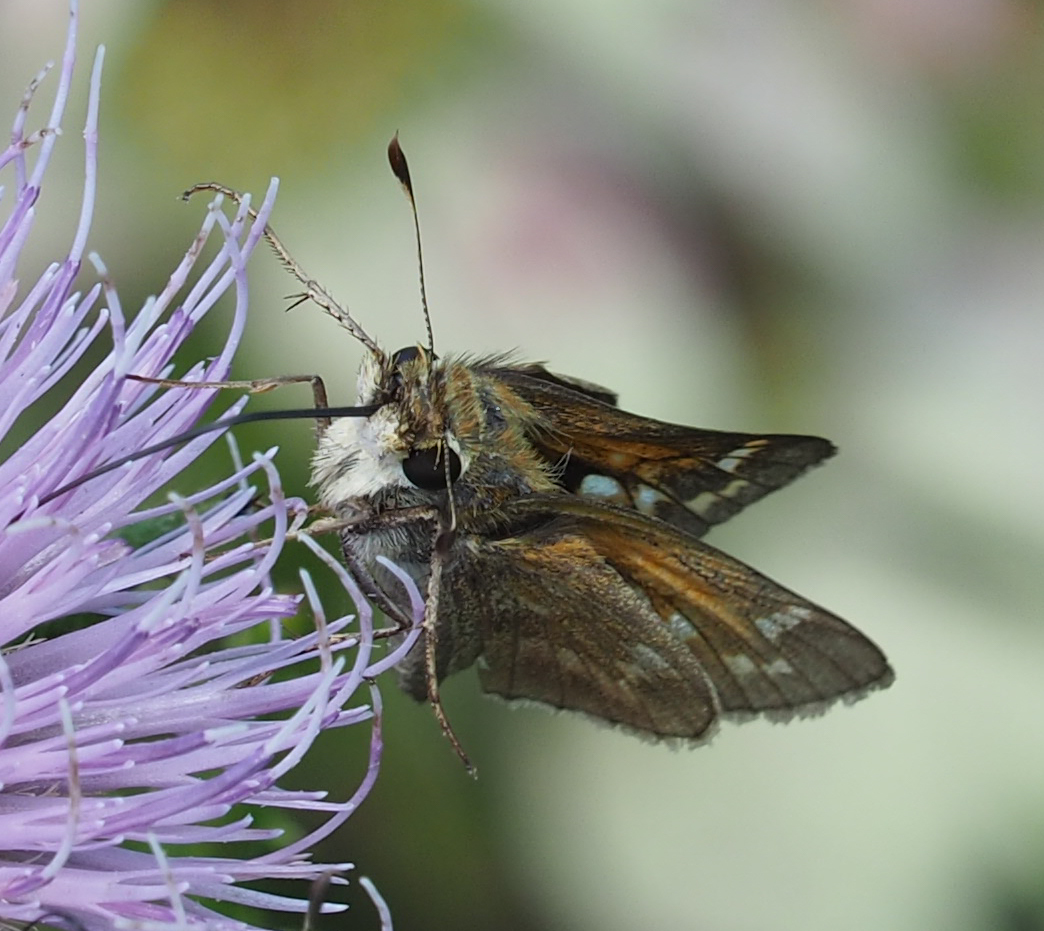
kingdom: Animalia
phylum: Arthropoda
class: Insecta
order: Lepidoptera
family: Hesperiidae
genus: Atalopedes
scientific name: Atalopedes
